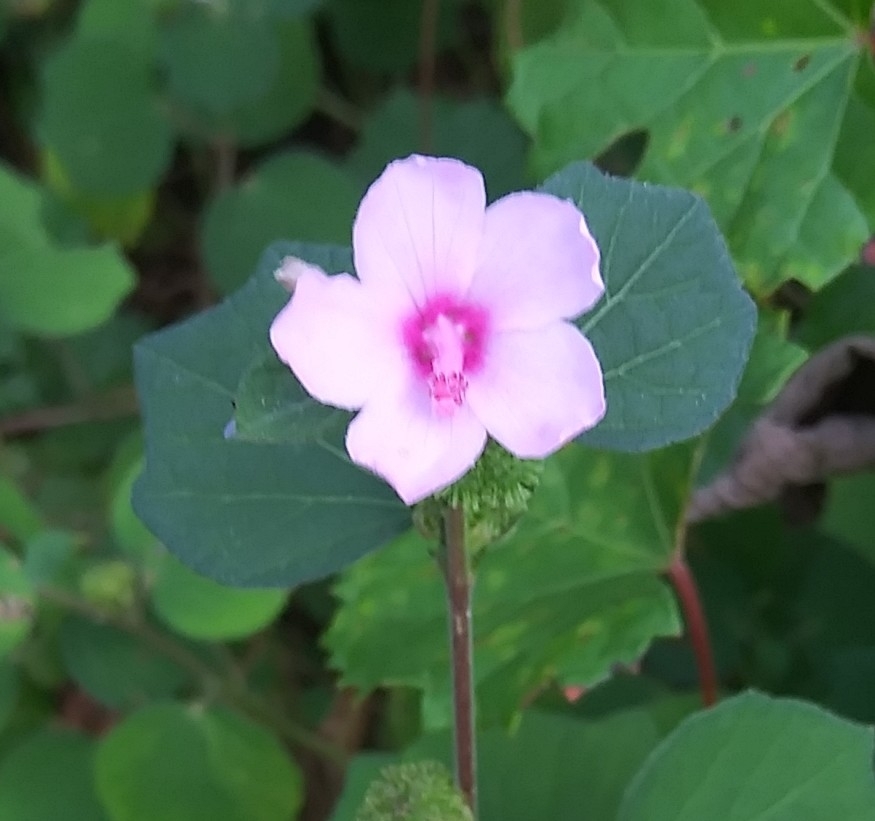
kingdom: Plantae
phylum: Tracheophyta
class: Magnoliopsida
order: Malvales
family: Malvaceae
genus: Urena
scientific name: Urena lobata
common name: Caesarweed
